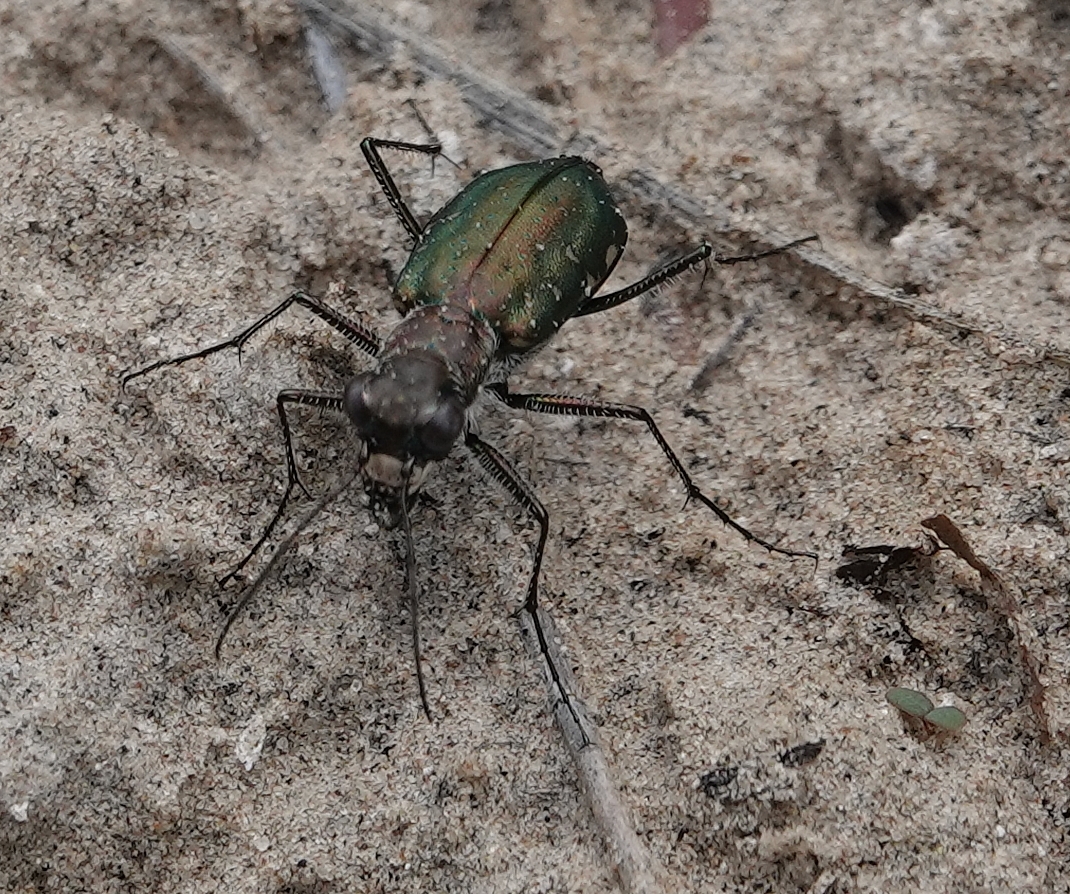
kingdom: Animalia
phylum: Arthropoda
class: Insecta
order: Coleoptera
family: Carabidae
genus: Cicindela
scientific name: Cicindela punctulata
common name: Punctured tiger beetle
